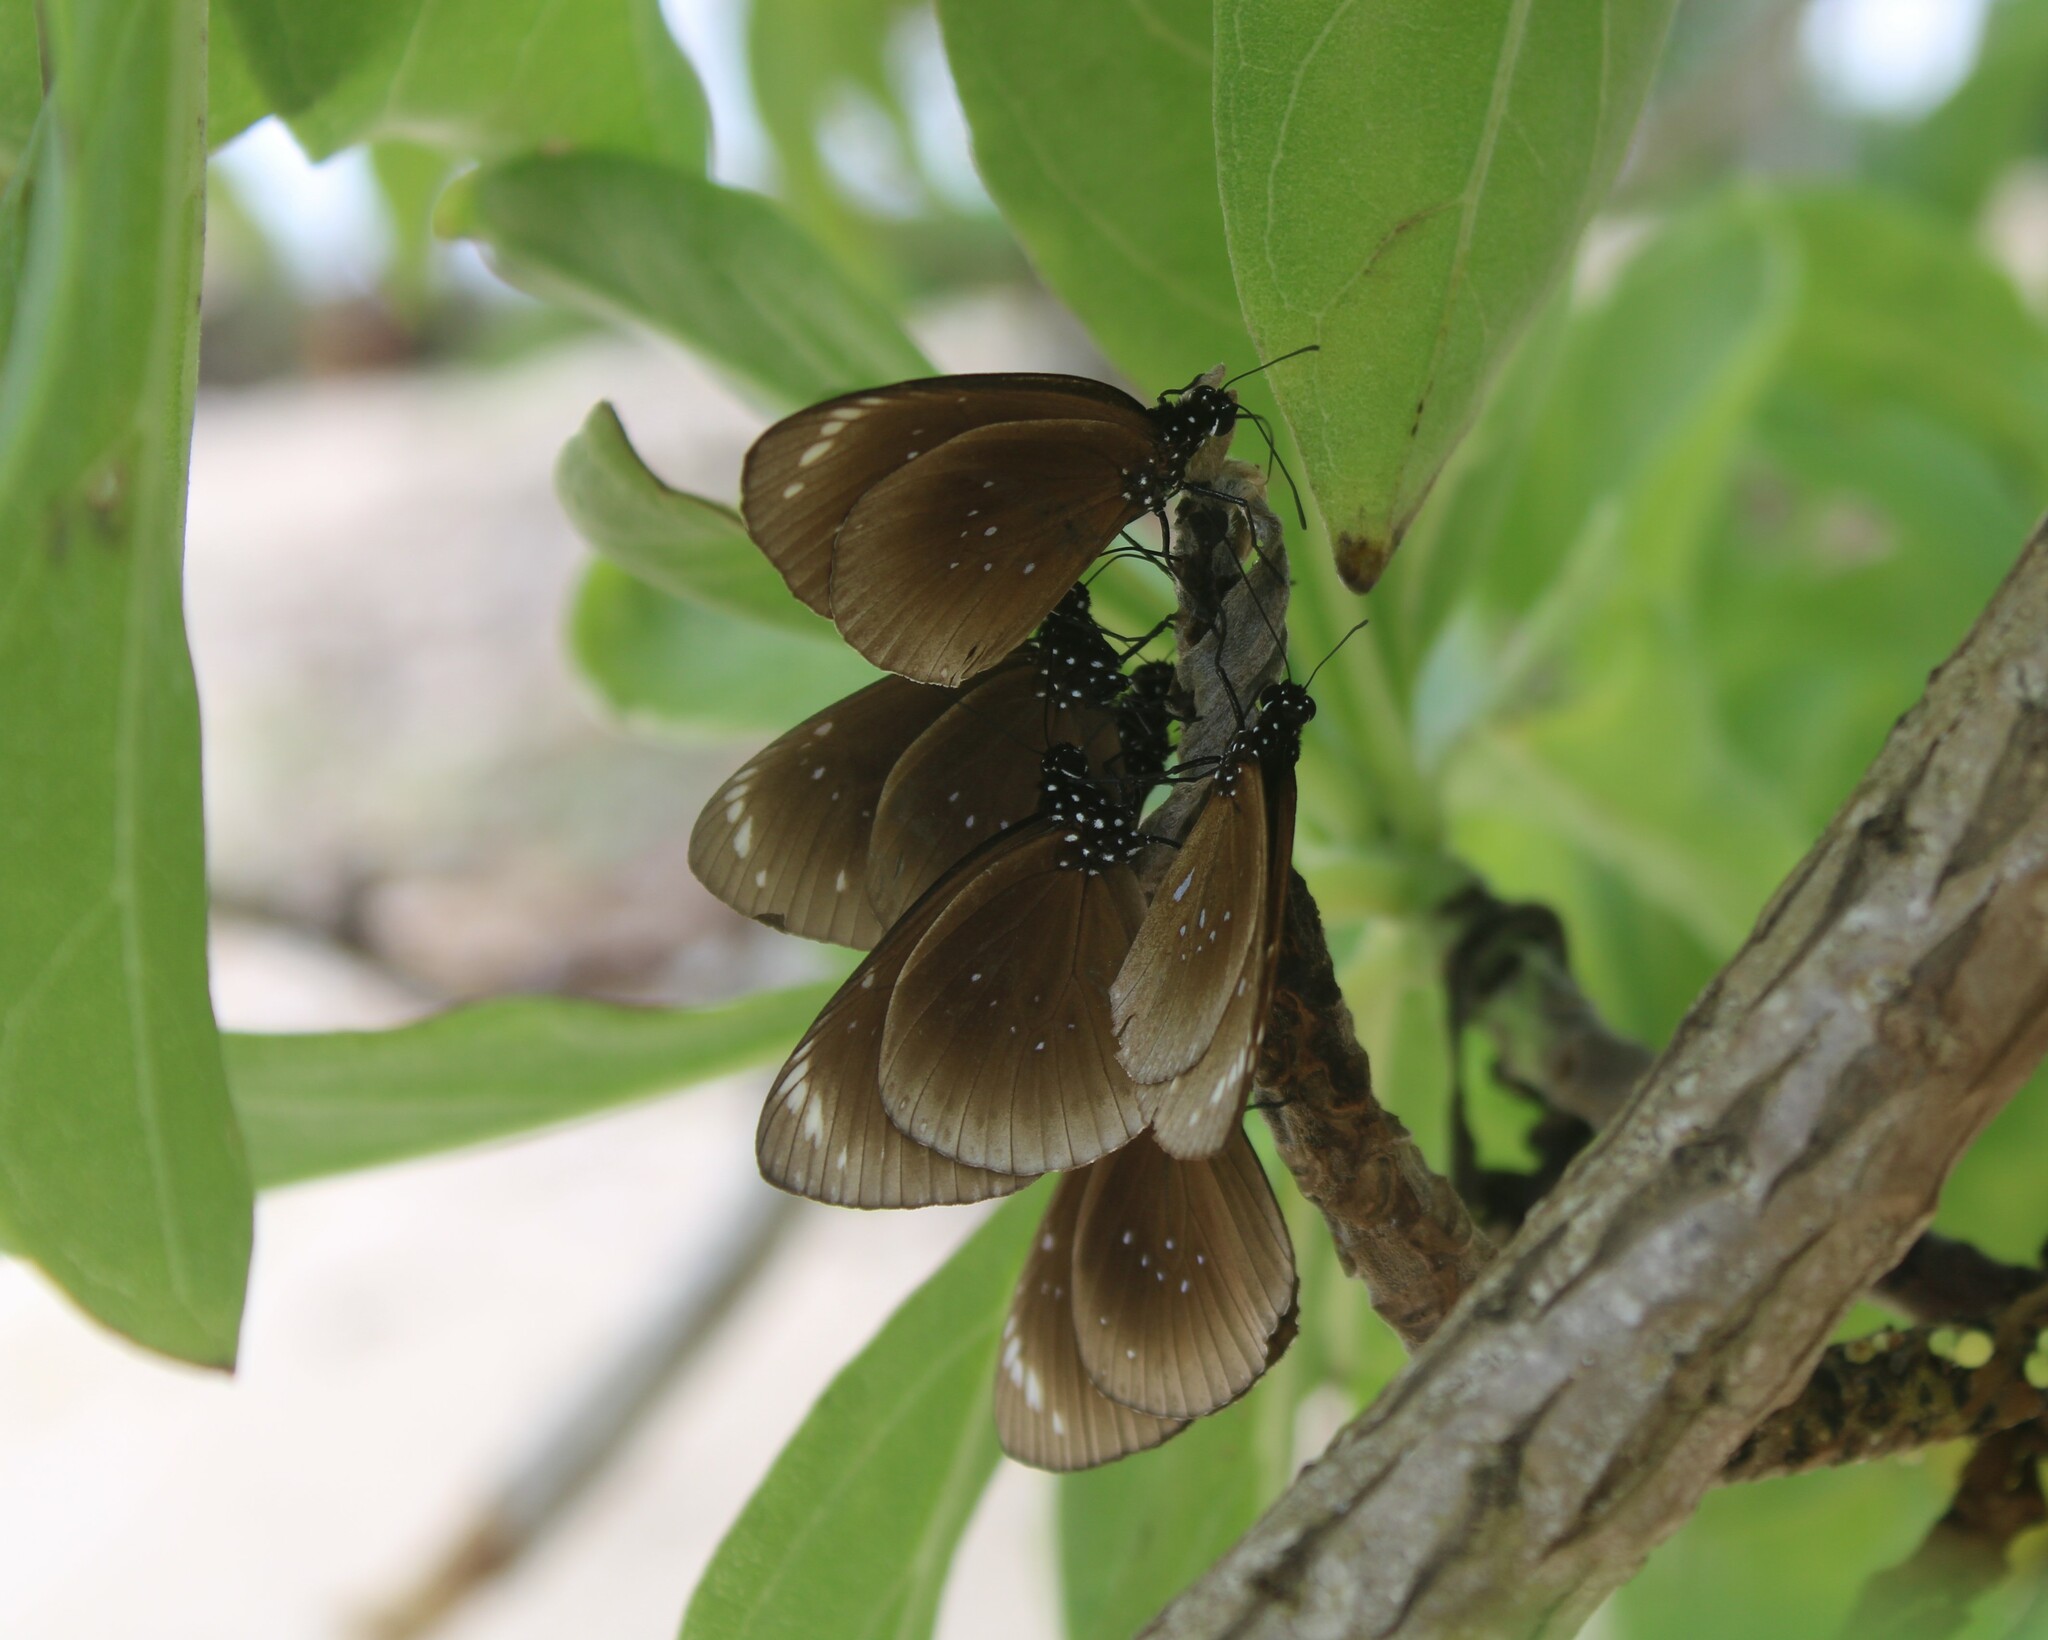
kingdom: Animalia
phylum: Arthropoda
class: Insecta
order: Lepidoptera
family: Nymphalidae
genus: Euploea
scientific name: Euploea algea
